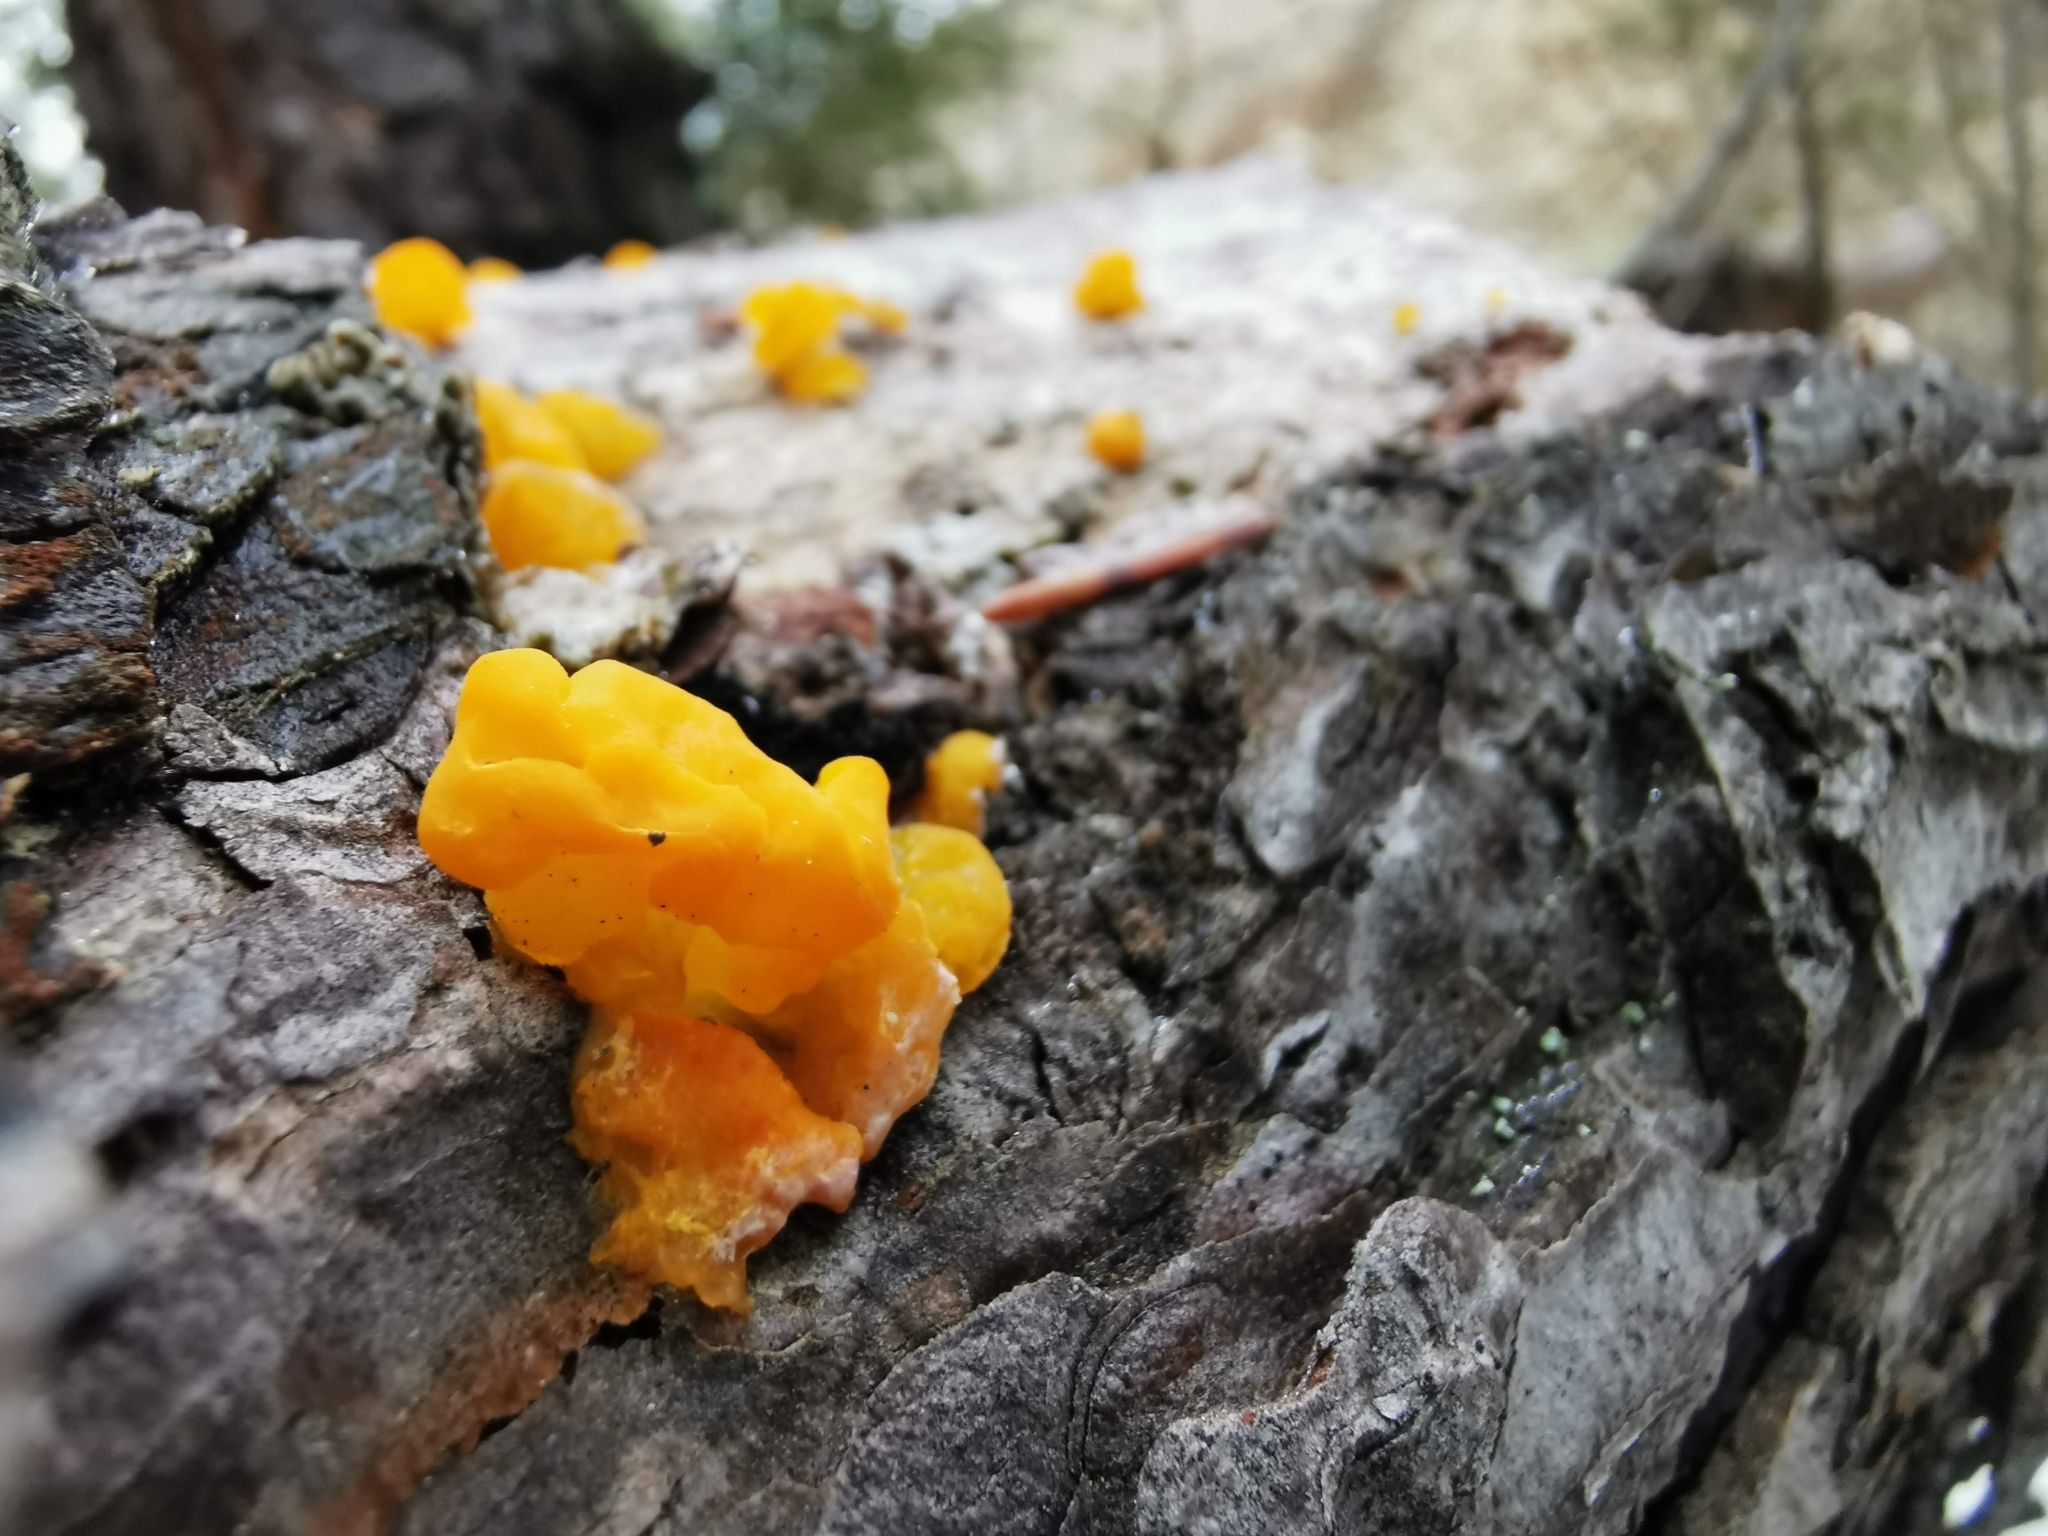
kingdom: Fungi
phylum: Basidiomycota
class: Dacrymycetes
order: Dacrymycetales
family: Dacrymycetaceae
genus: Dacrymyces
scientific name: Dacrymyces chrysospermus
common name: Orange jelly spot
